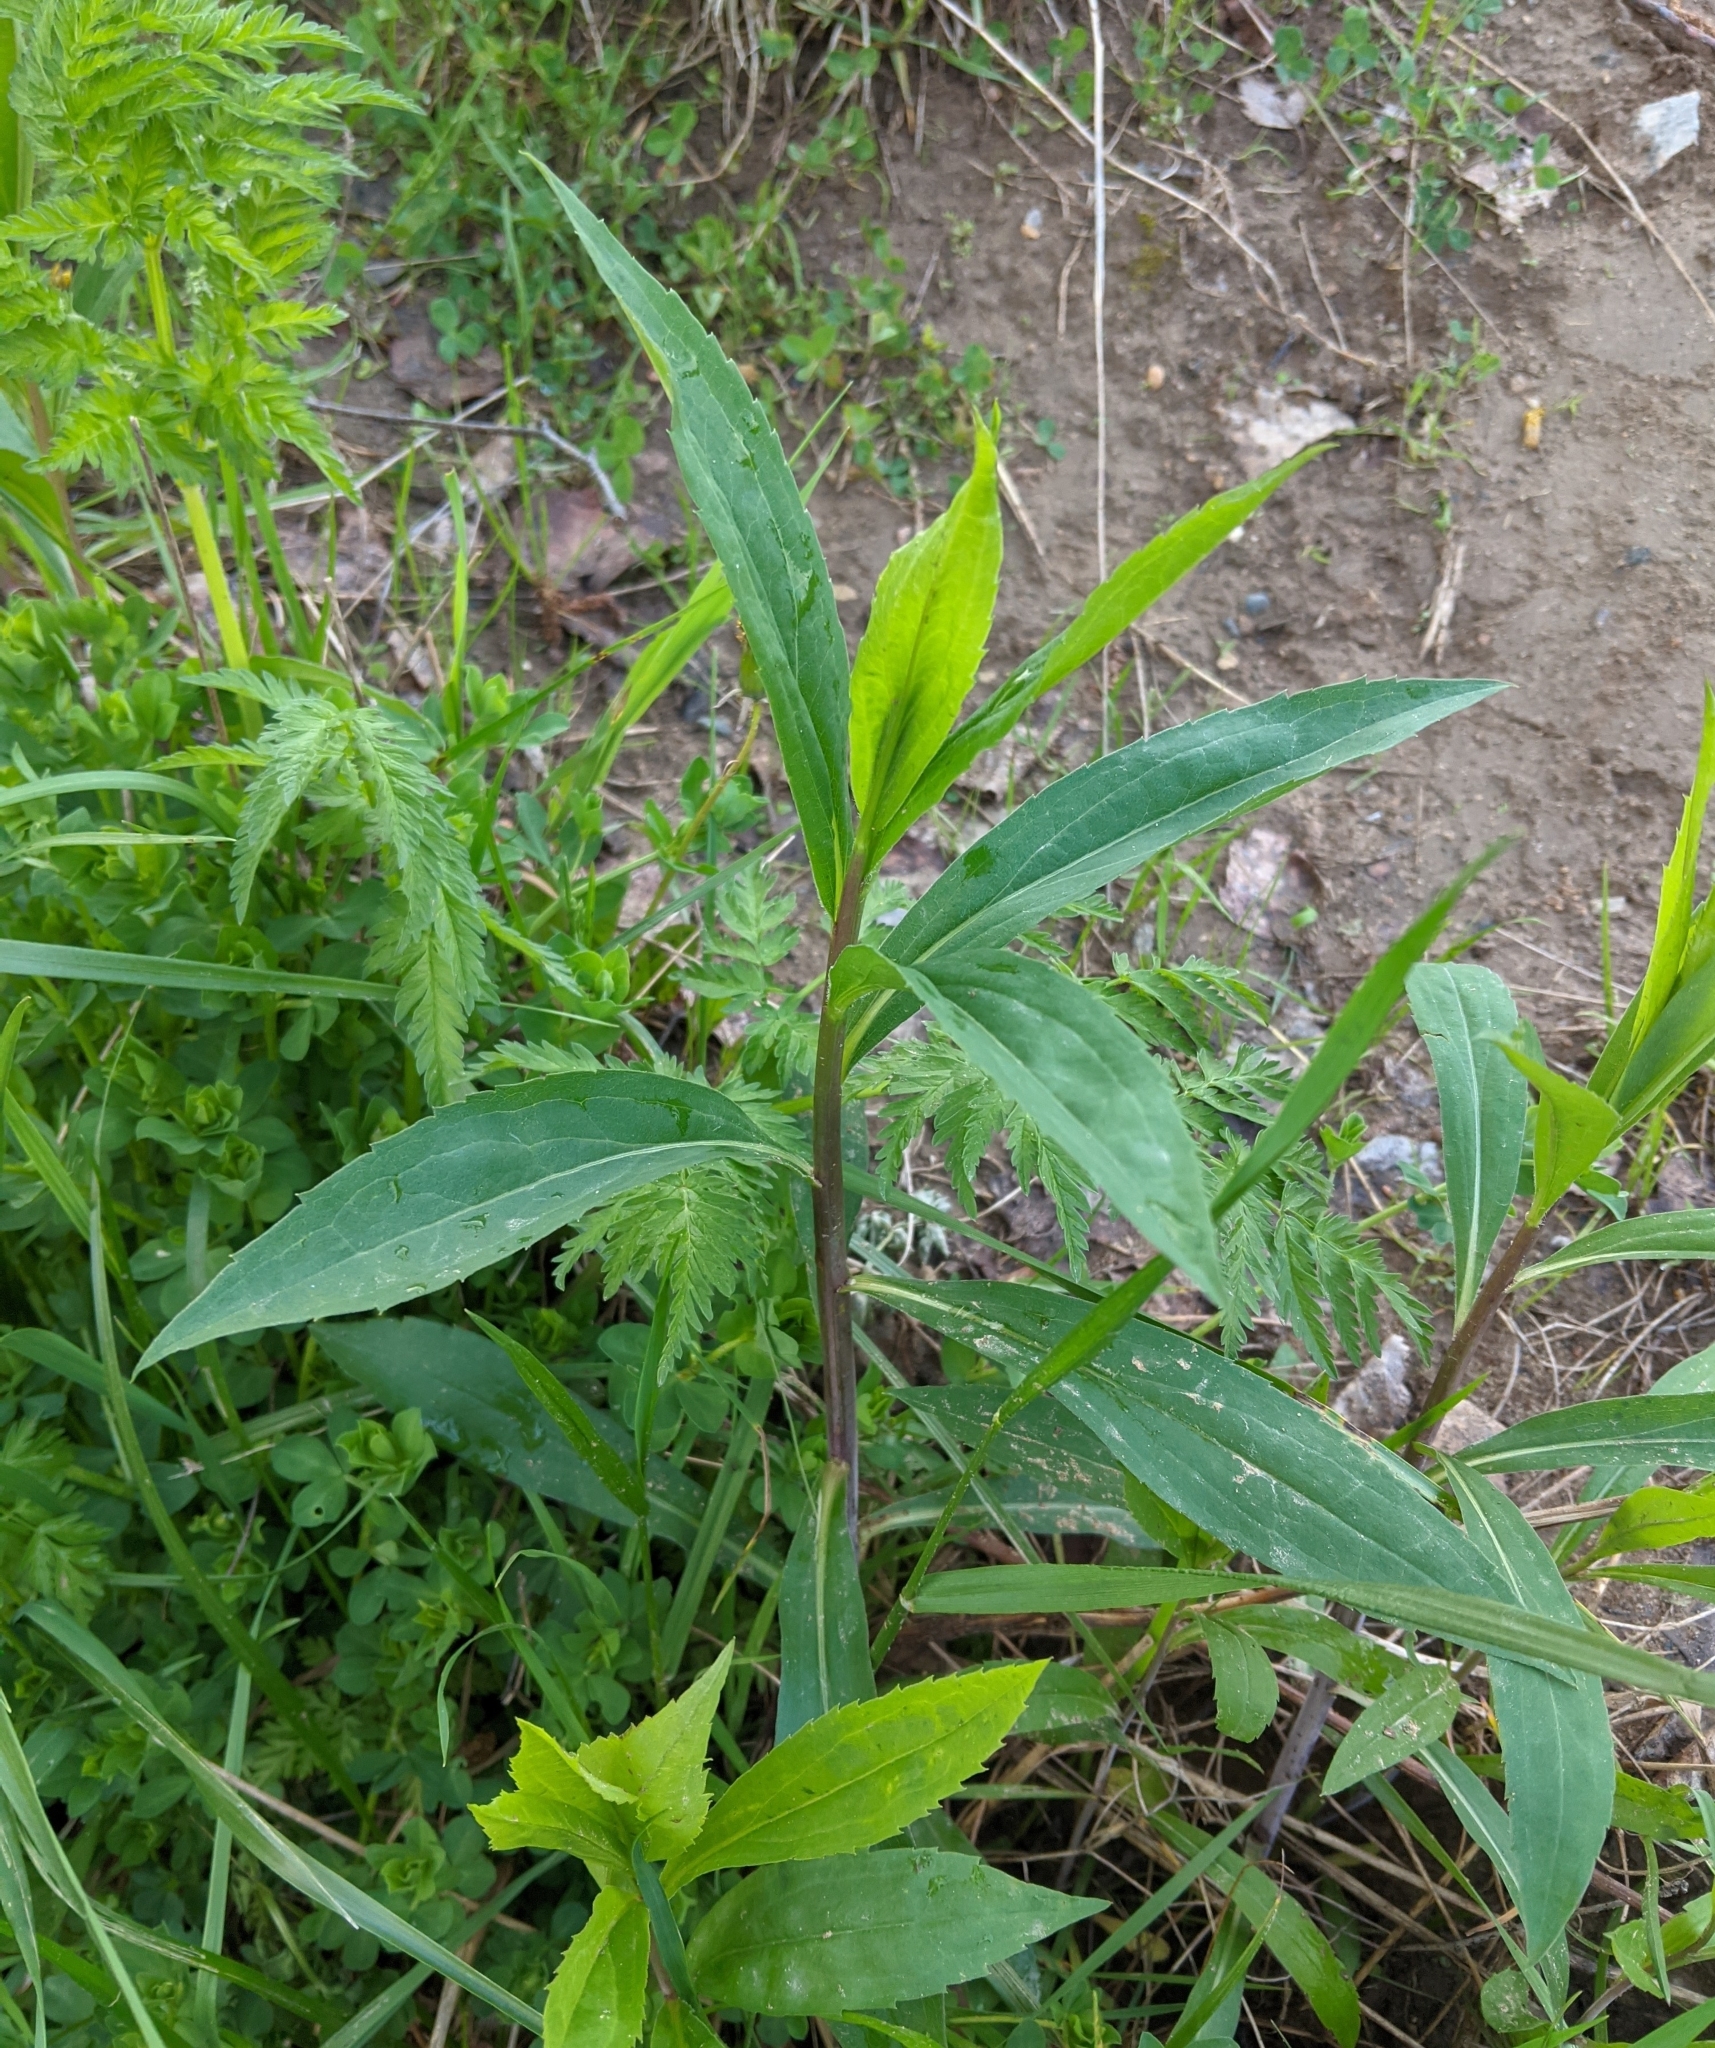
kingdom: Plantae
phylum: Tracheophyta
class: Magnoliopsida
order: Asterales
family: Asteraceae
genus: Solidago
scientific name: Solidago gigantea
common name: Giant goldenrod
